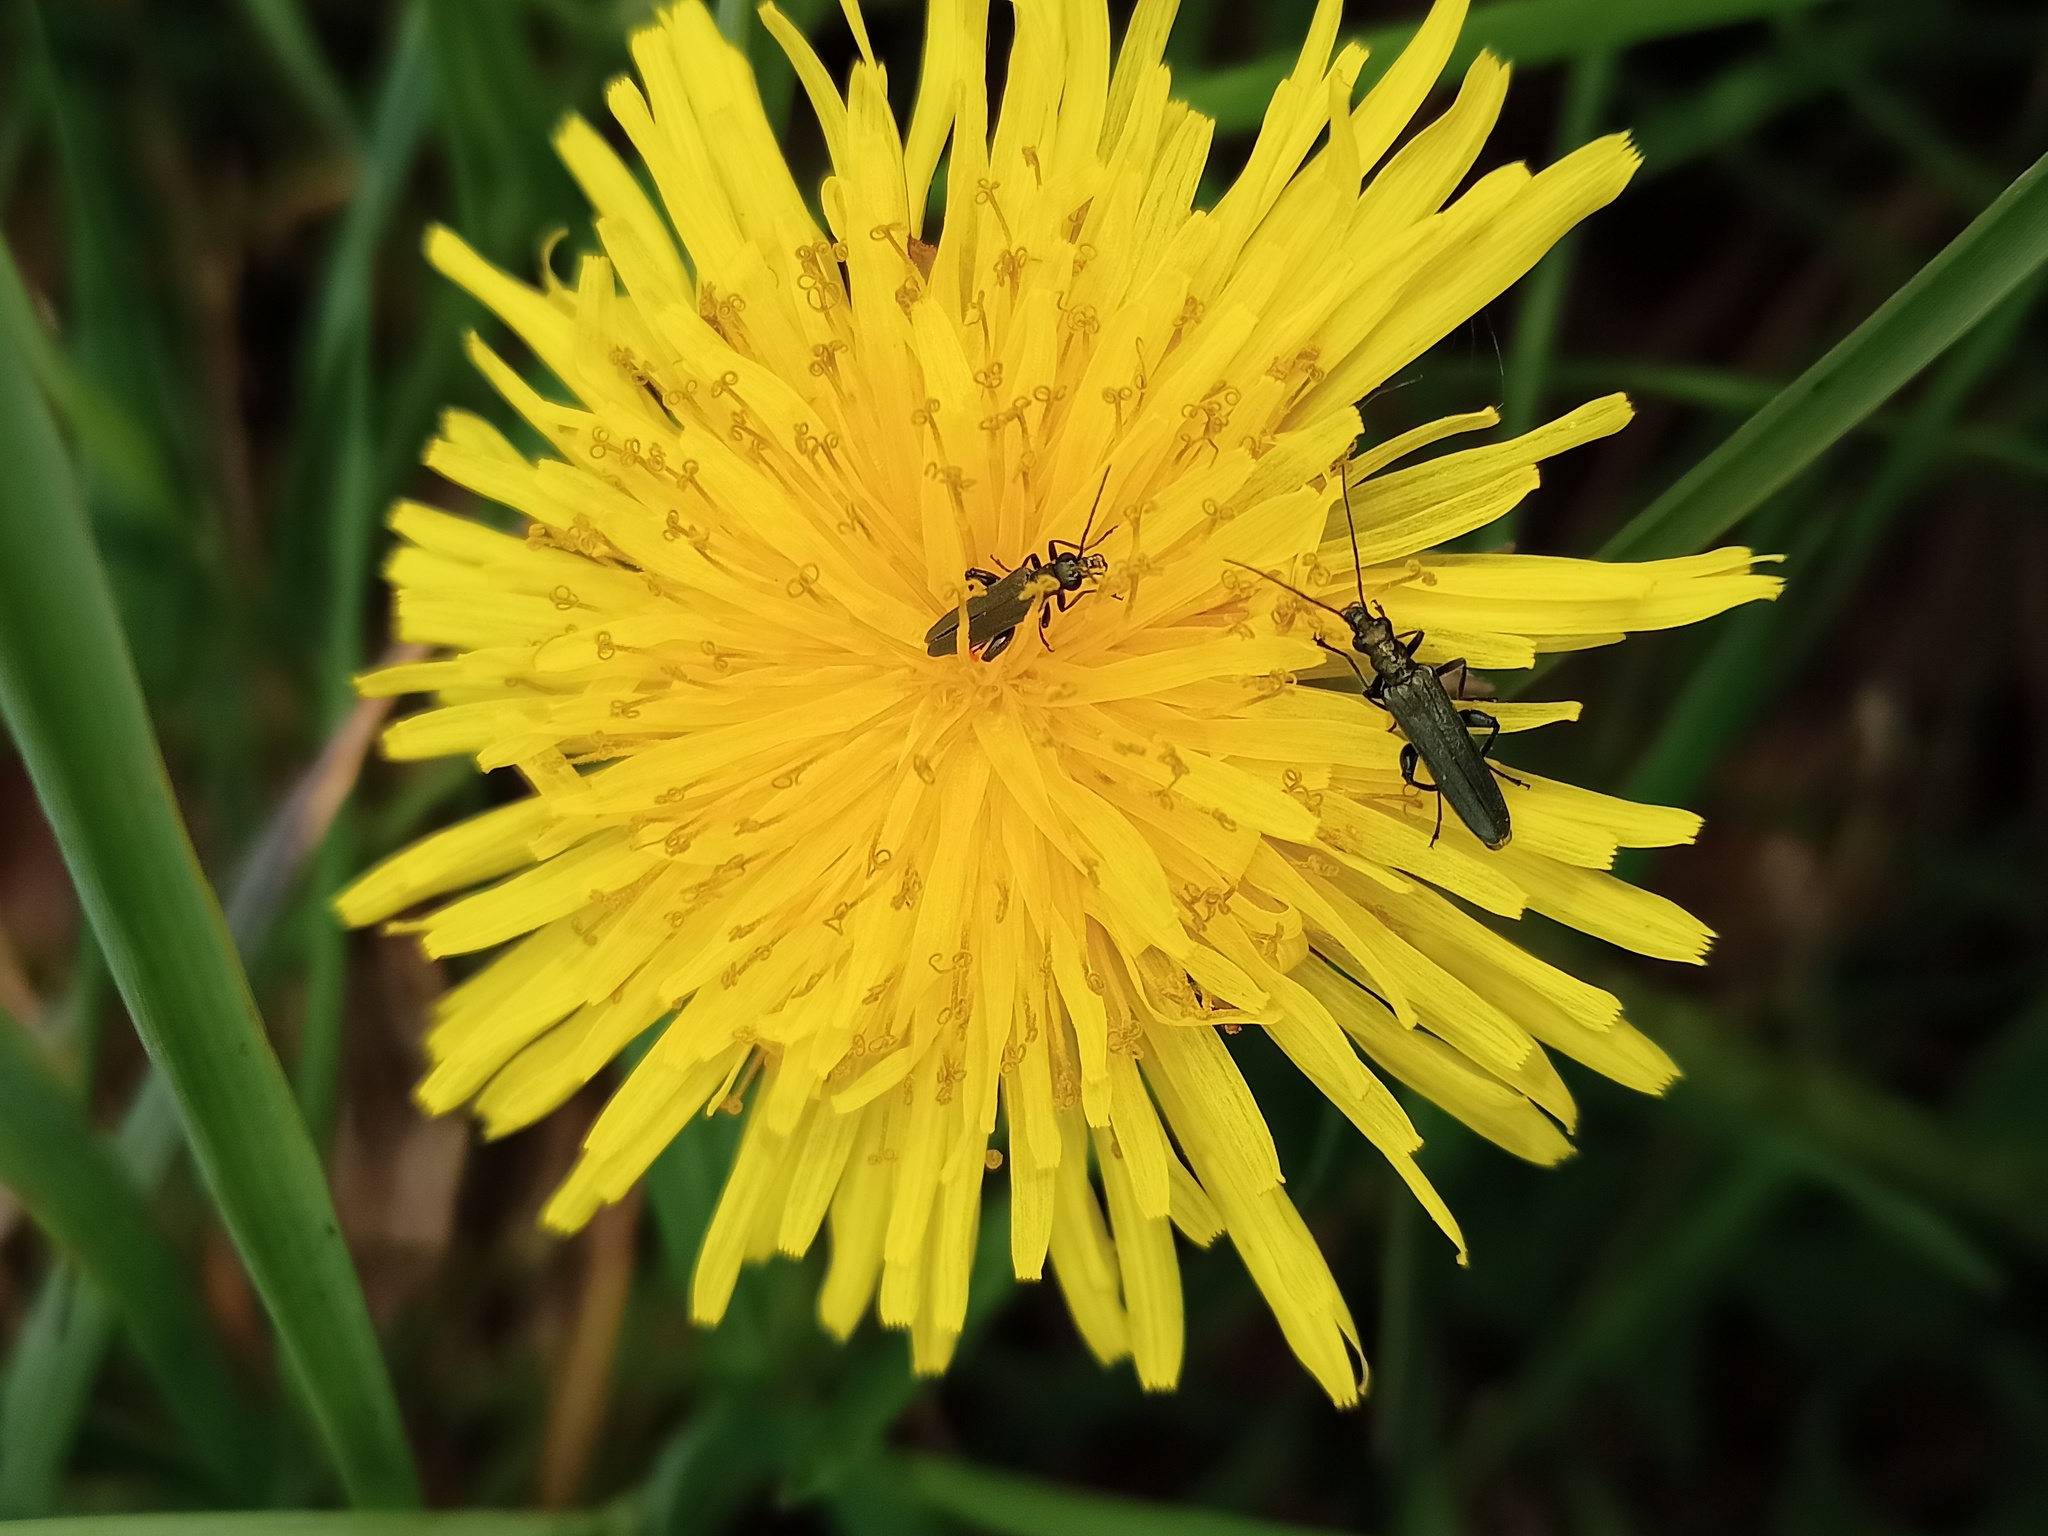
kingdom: Animalia
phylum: Arthropoda
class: Insecta
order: Coleoptera
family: Oedemeridae
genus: Oedemera
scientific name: Oedemera virescens
